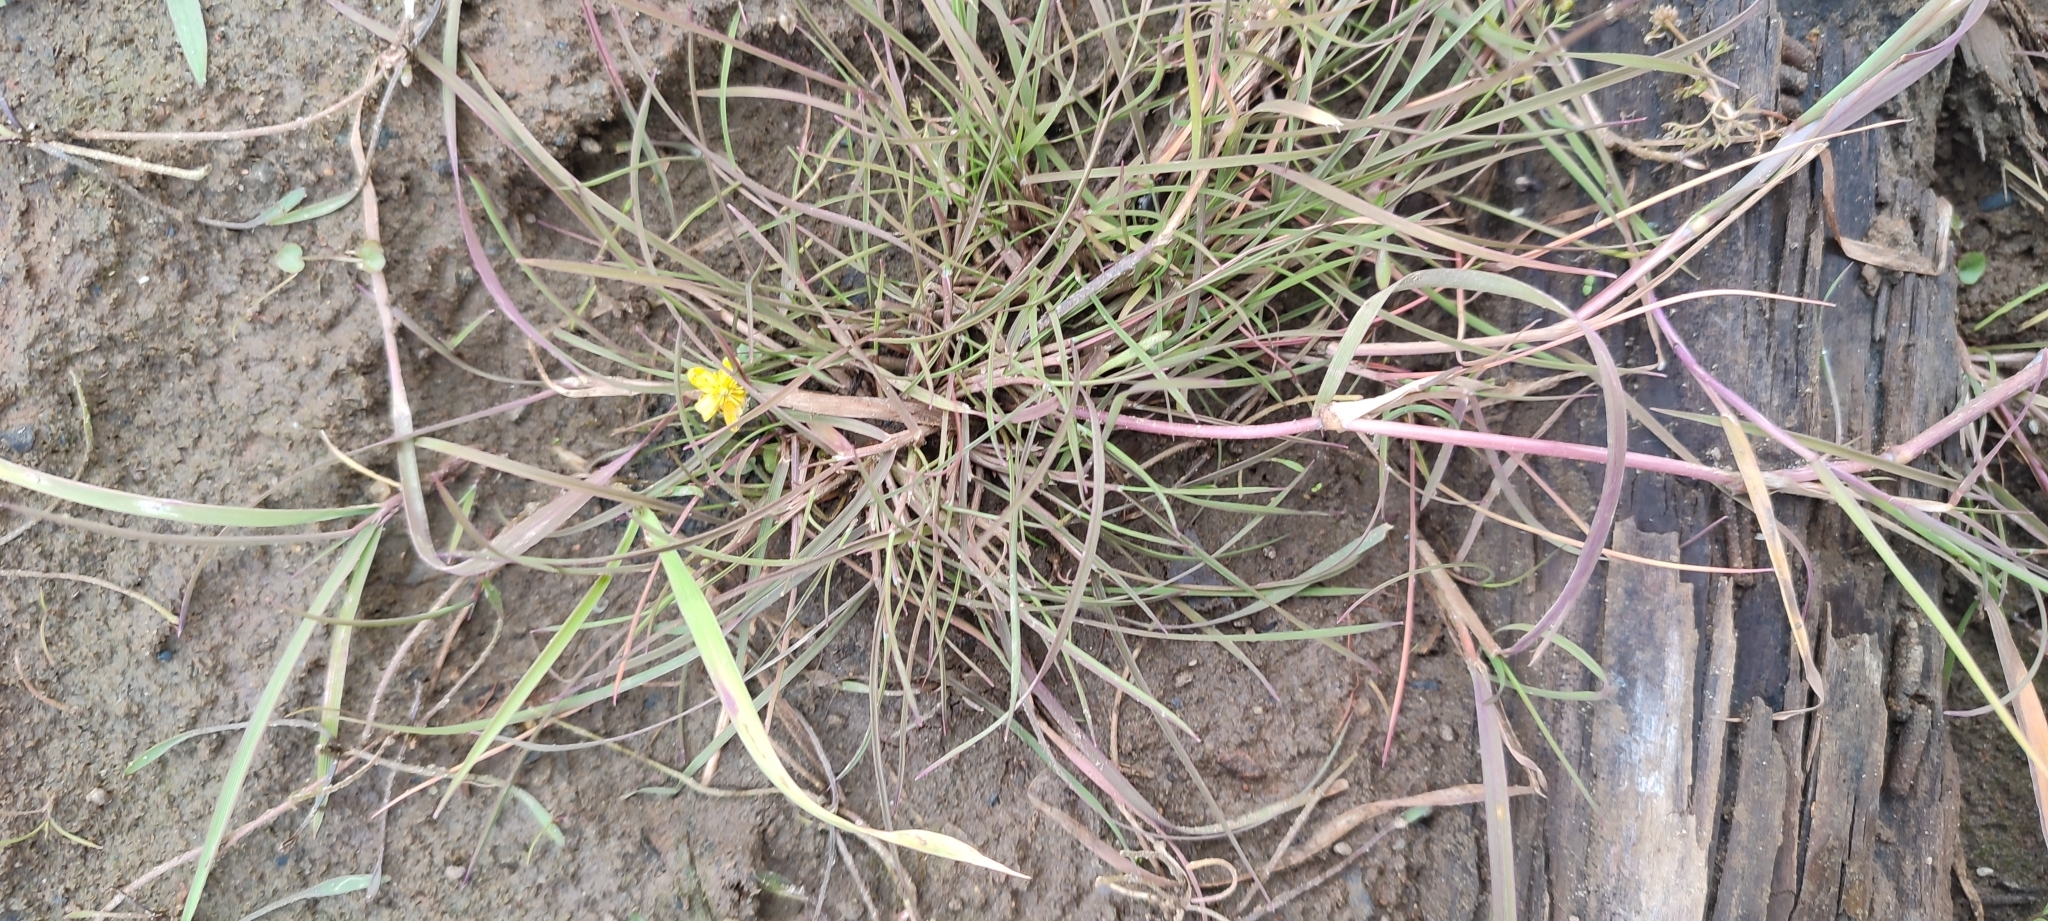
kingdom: Plantae
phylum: Tracheophyta
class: Magnoliopsida
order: Ranunculales
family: Ranunculaceae
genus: Ranunculus
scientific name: Ranunculus reptans
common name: Creeping spearwort
